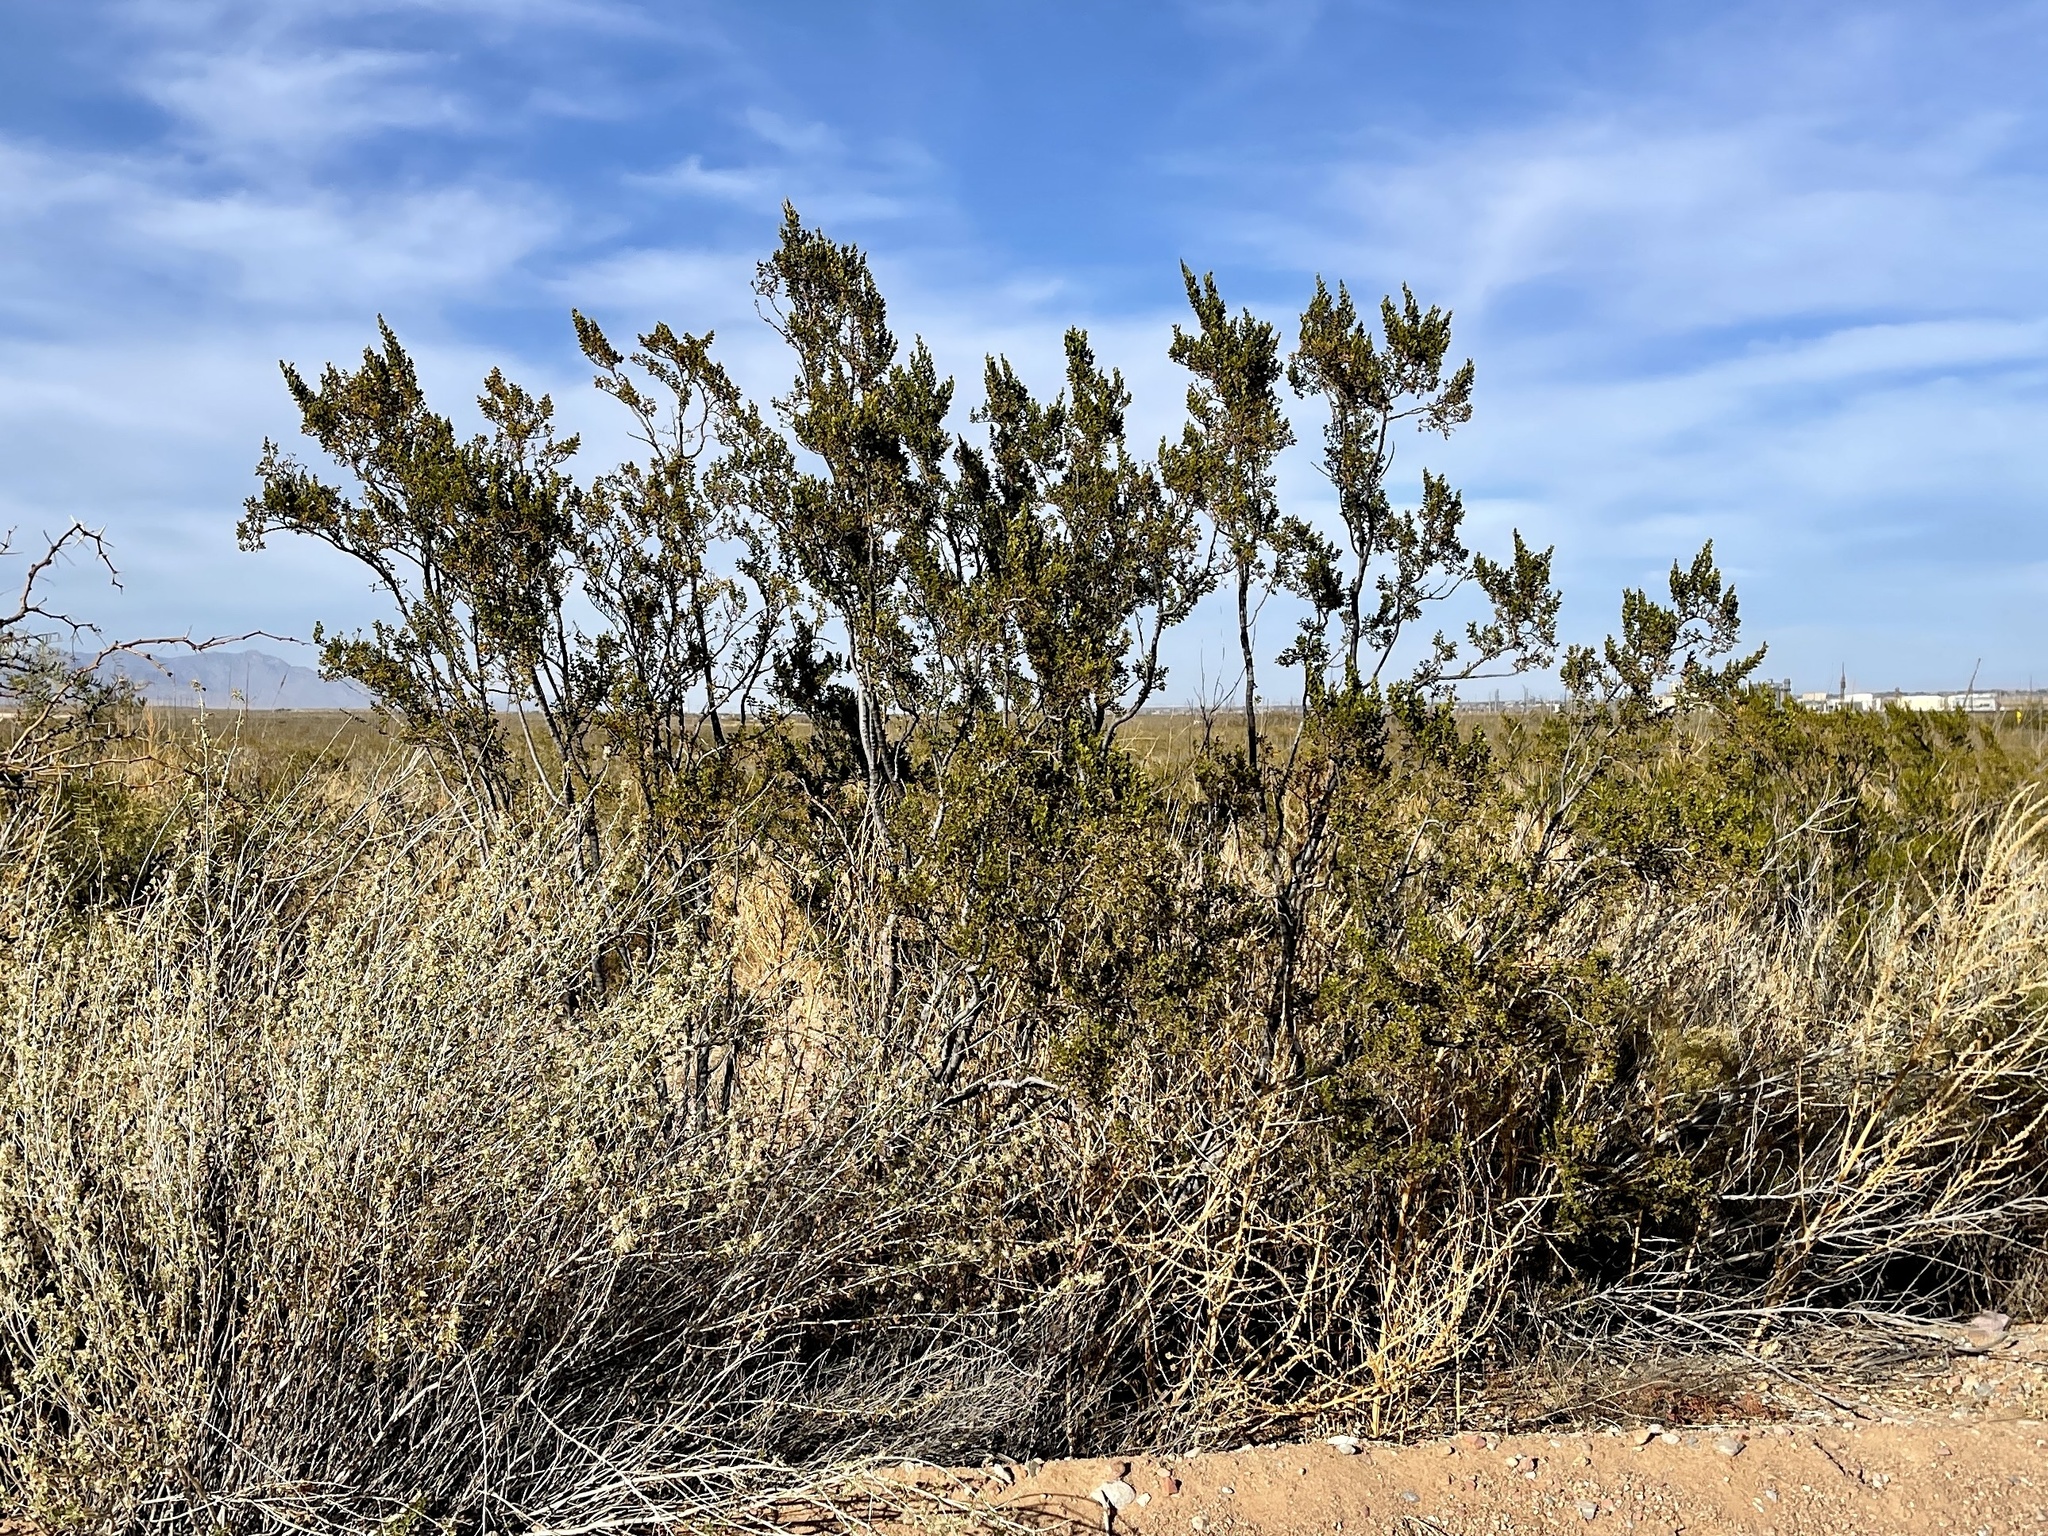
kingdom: Plantae
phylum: Tracheophyta
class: Magnoliopsida
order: Zygophyllales
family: Zygophyllaceae
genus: Larrea
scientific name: Larrea tridentata
